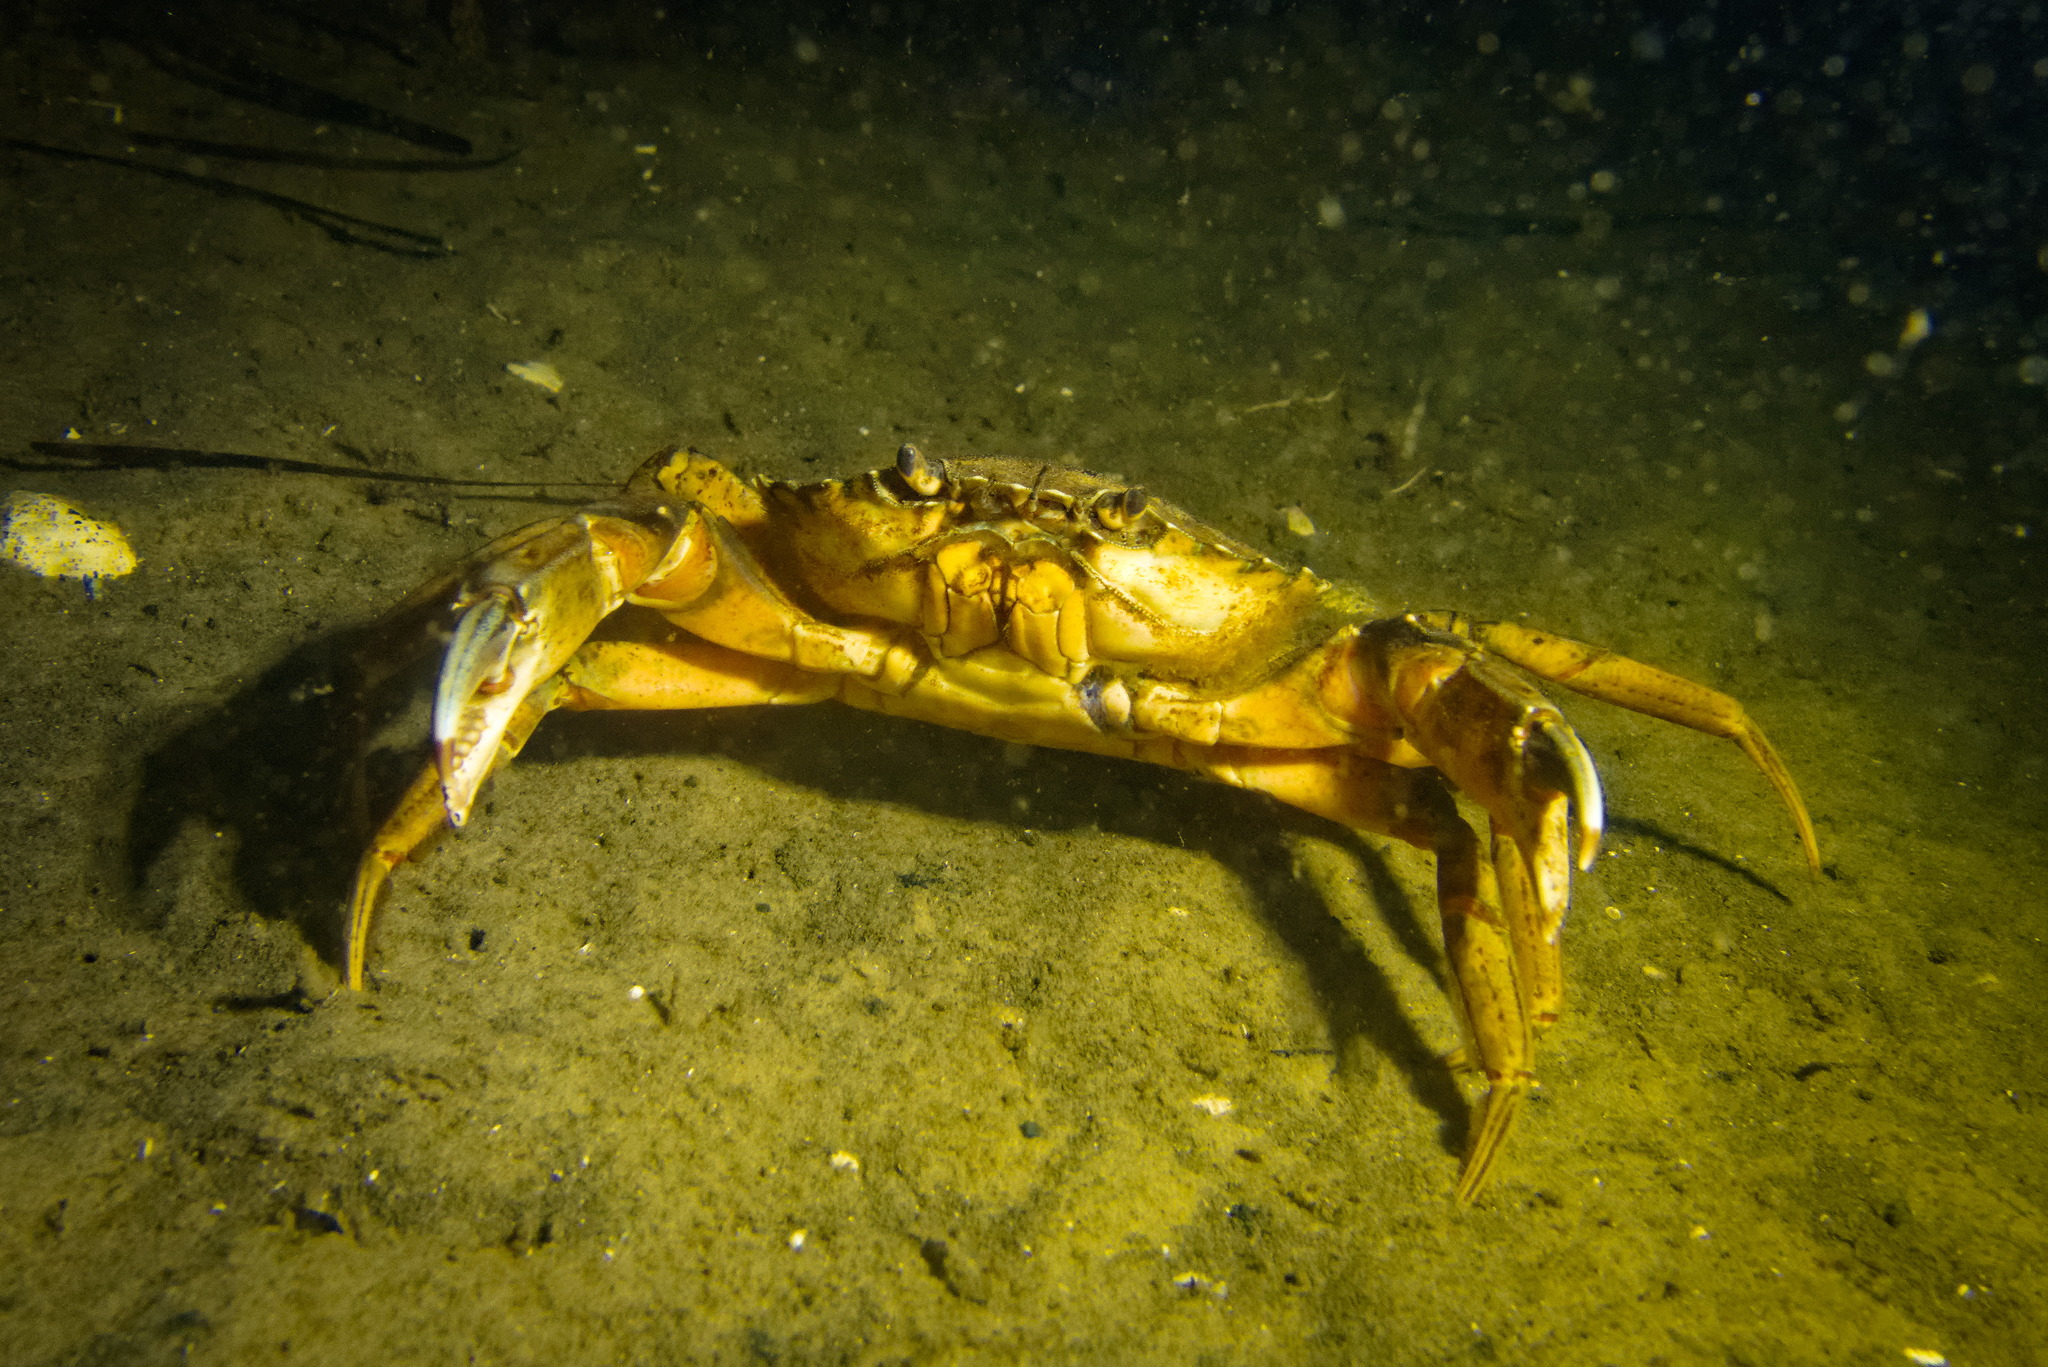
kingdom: Animalia
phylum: Arthropoda
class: Malacostraca
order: Decapoda
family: Carcinidae
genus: Carcinus
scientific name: Carcinus maenas
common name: European green crab
